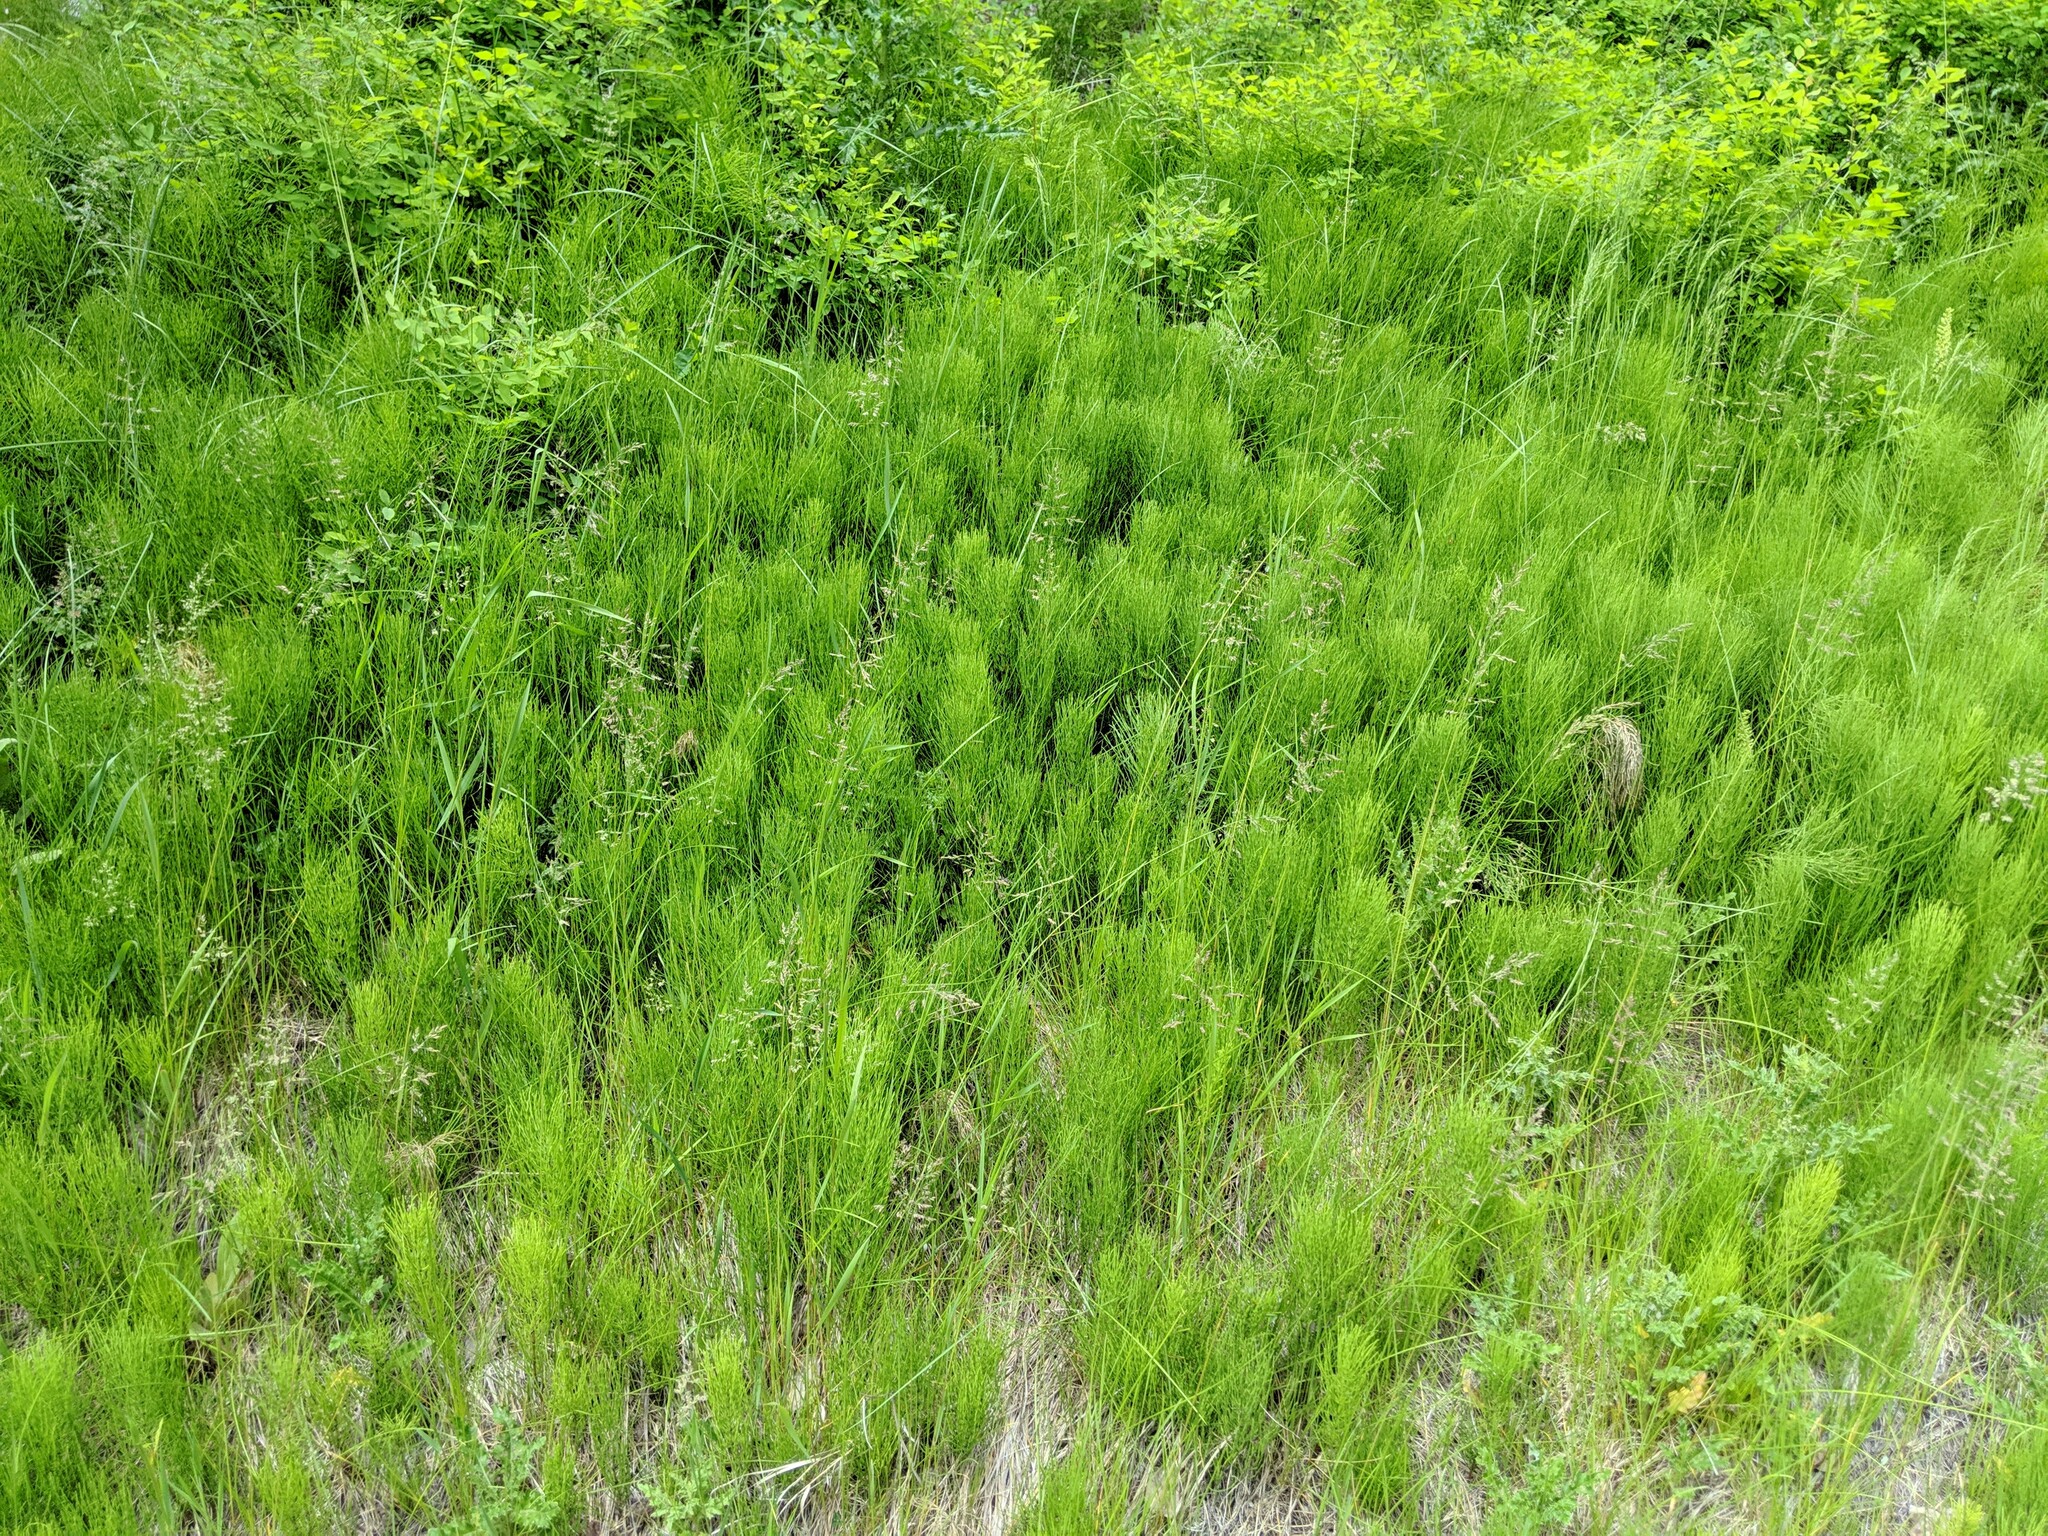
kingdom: Plantae
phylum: Tracheophyta
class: Polypodiopsida
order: Equisetales
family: Equisetaceae
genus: Equisetum
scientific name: Equisetum arvense
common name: Field horsetail
